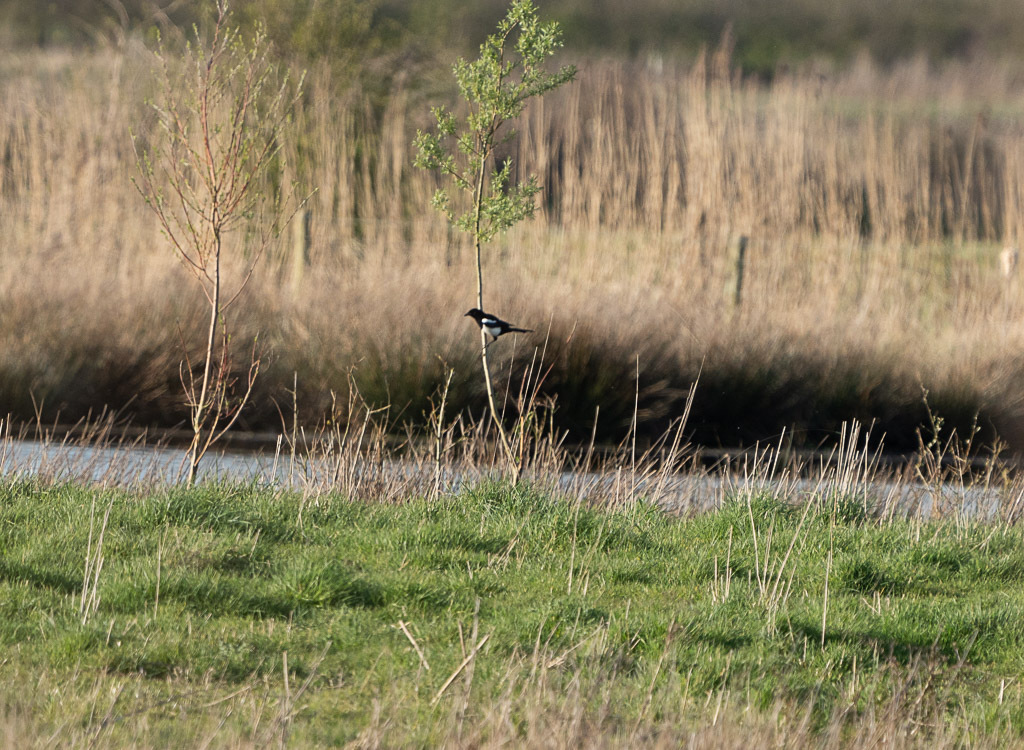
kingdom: Animalia
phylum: Chordata
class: Aves
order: Passeriformes
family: Corvidae
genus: Pica
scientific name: Pica pica
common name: Eurasian magpie
